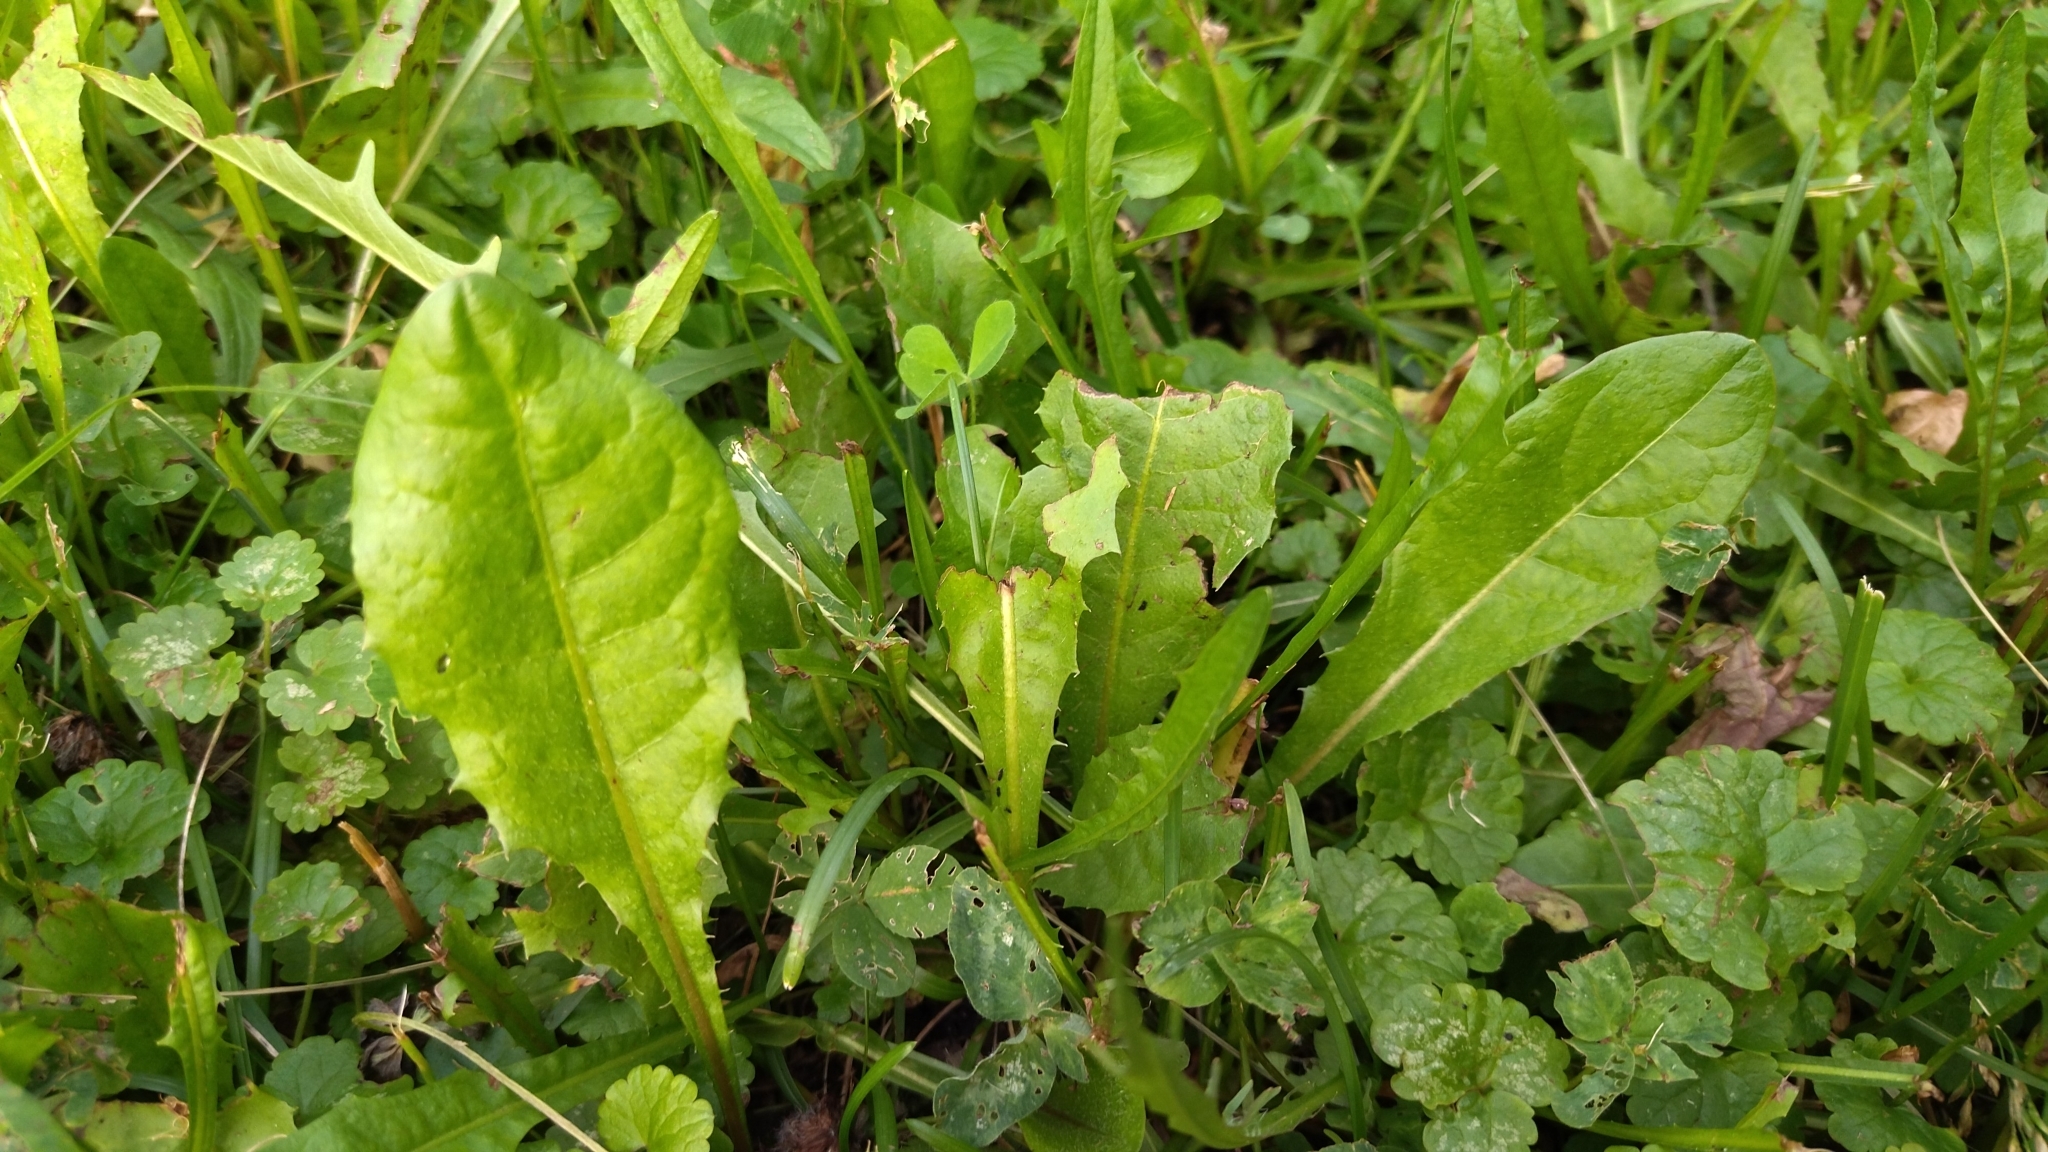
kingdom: Plantae
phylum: Tracheophyta
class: Magnoliopsida
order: Asterales
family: Asteraceae
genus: Taraxacum
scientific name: Taraxacum officinale
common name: Common dandelion
